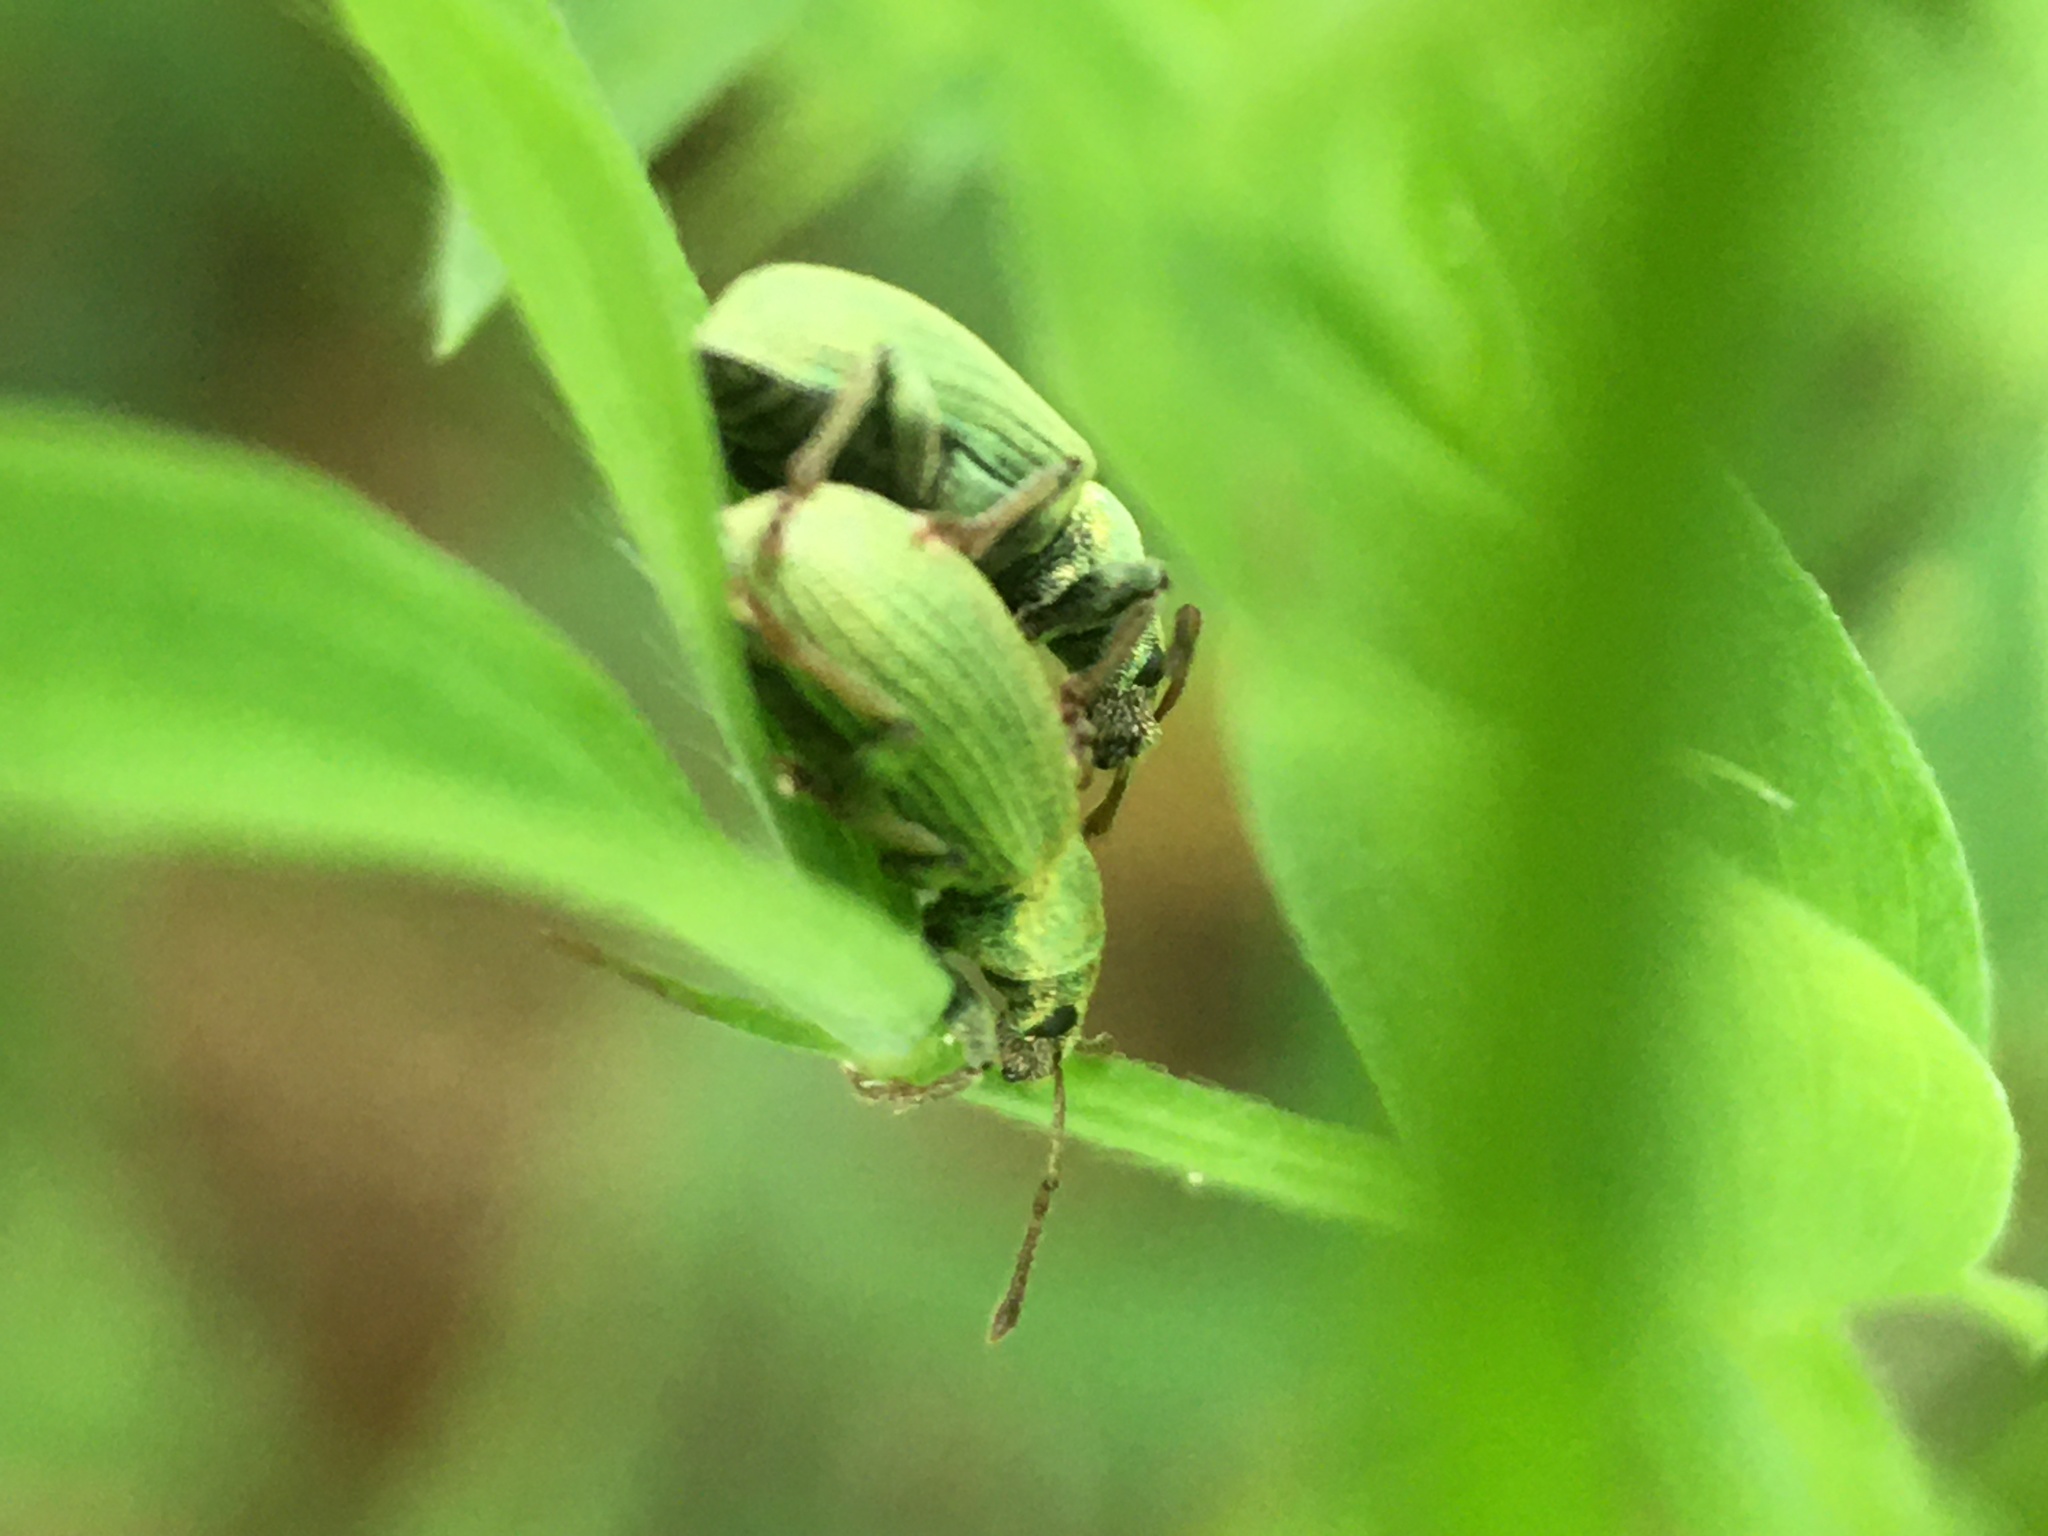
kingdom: Animalia
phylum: Arthropoda
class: Insecta
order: Coleoptera
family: Curculionidae
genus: Phyllobius
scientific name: Phyllobius roboretanus
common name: Small green nettle weevil
